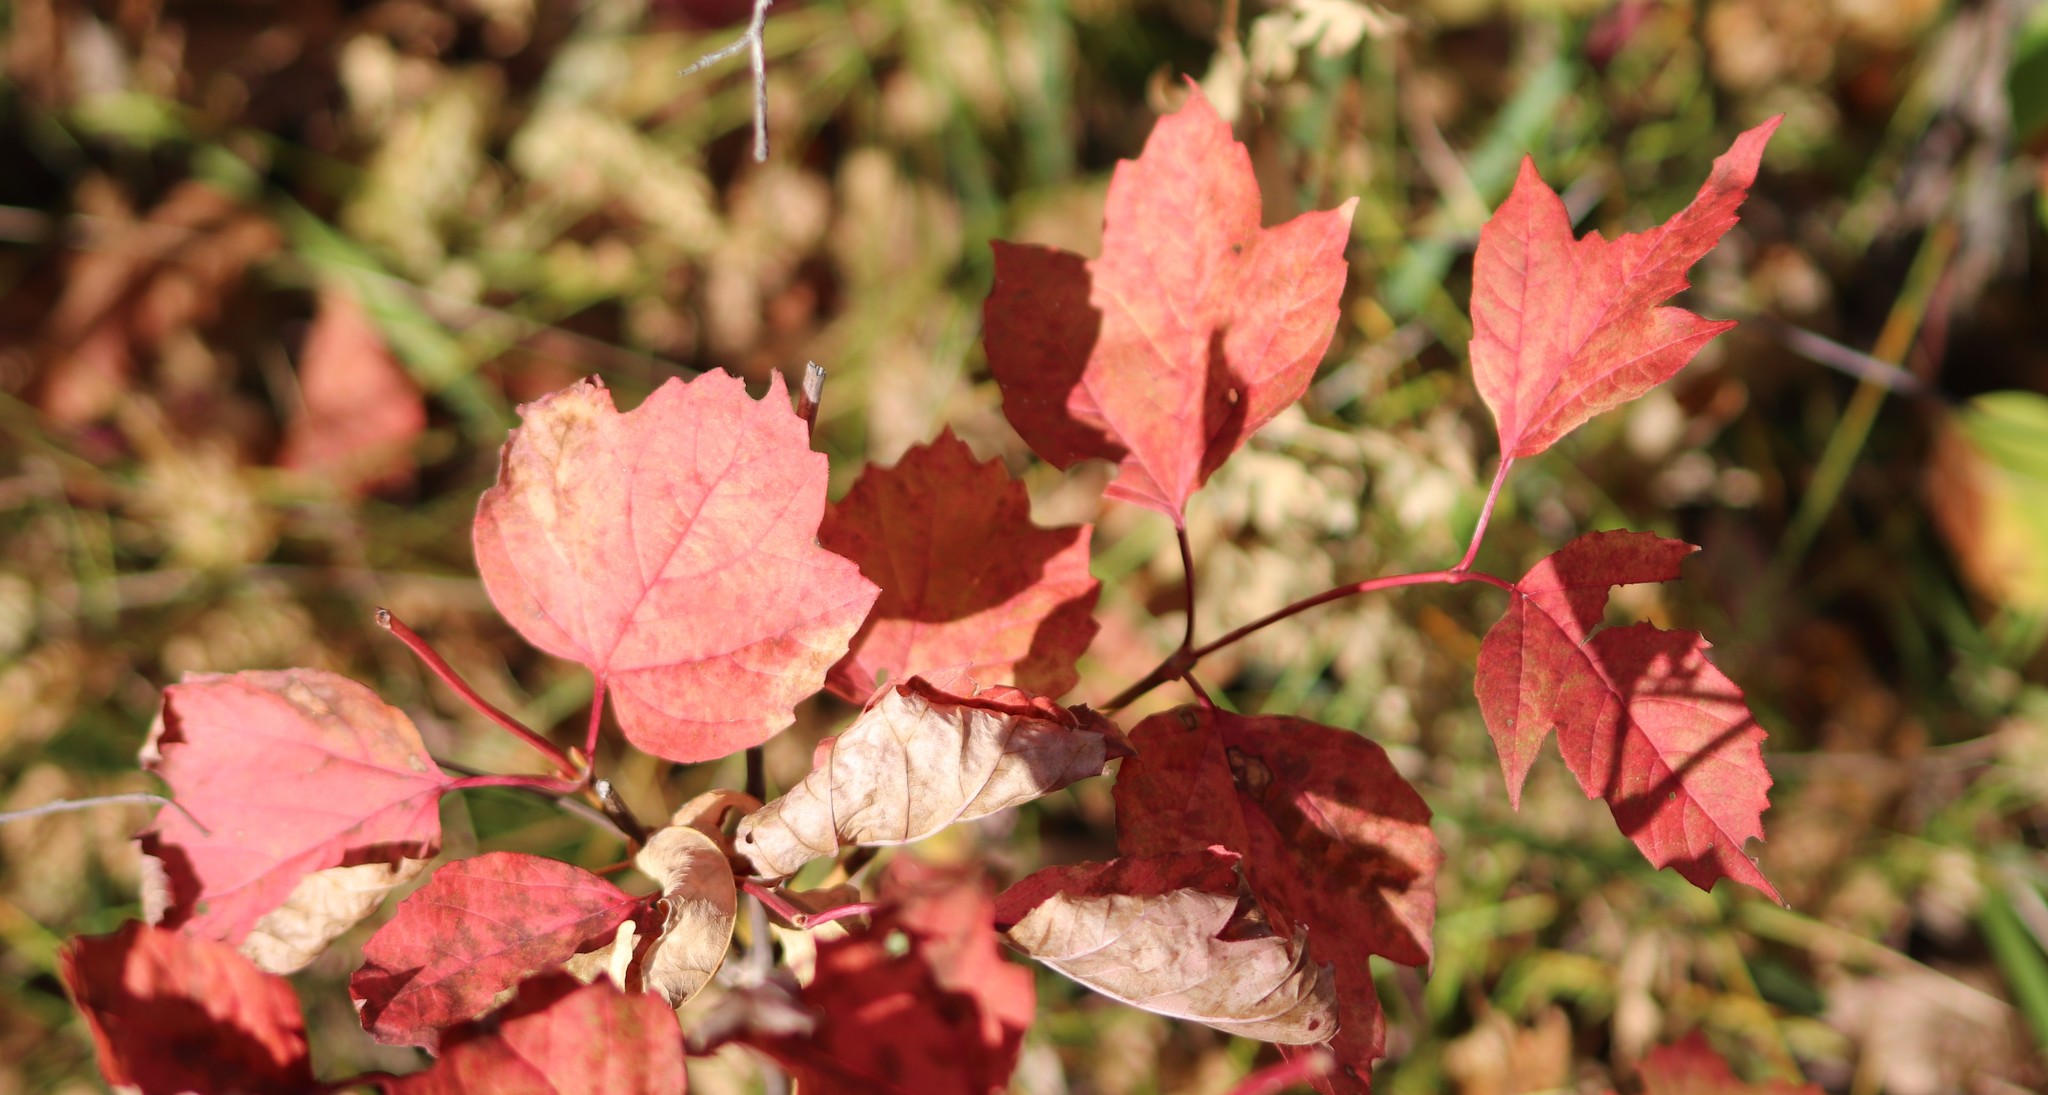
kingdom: Plantae
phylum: Tracheophyta
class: Magnoliopsida
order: Sapindales
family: Sapindaceae
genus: Acer
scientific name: Acer negundo
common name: Ashleaf maple
